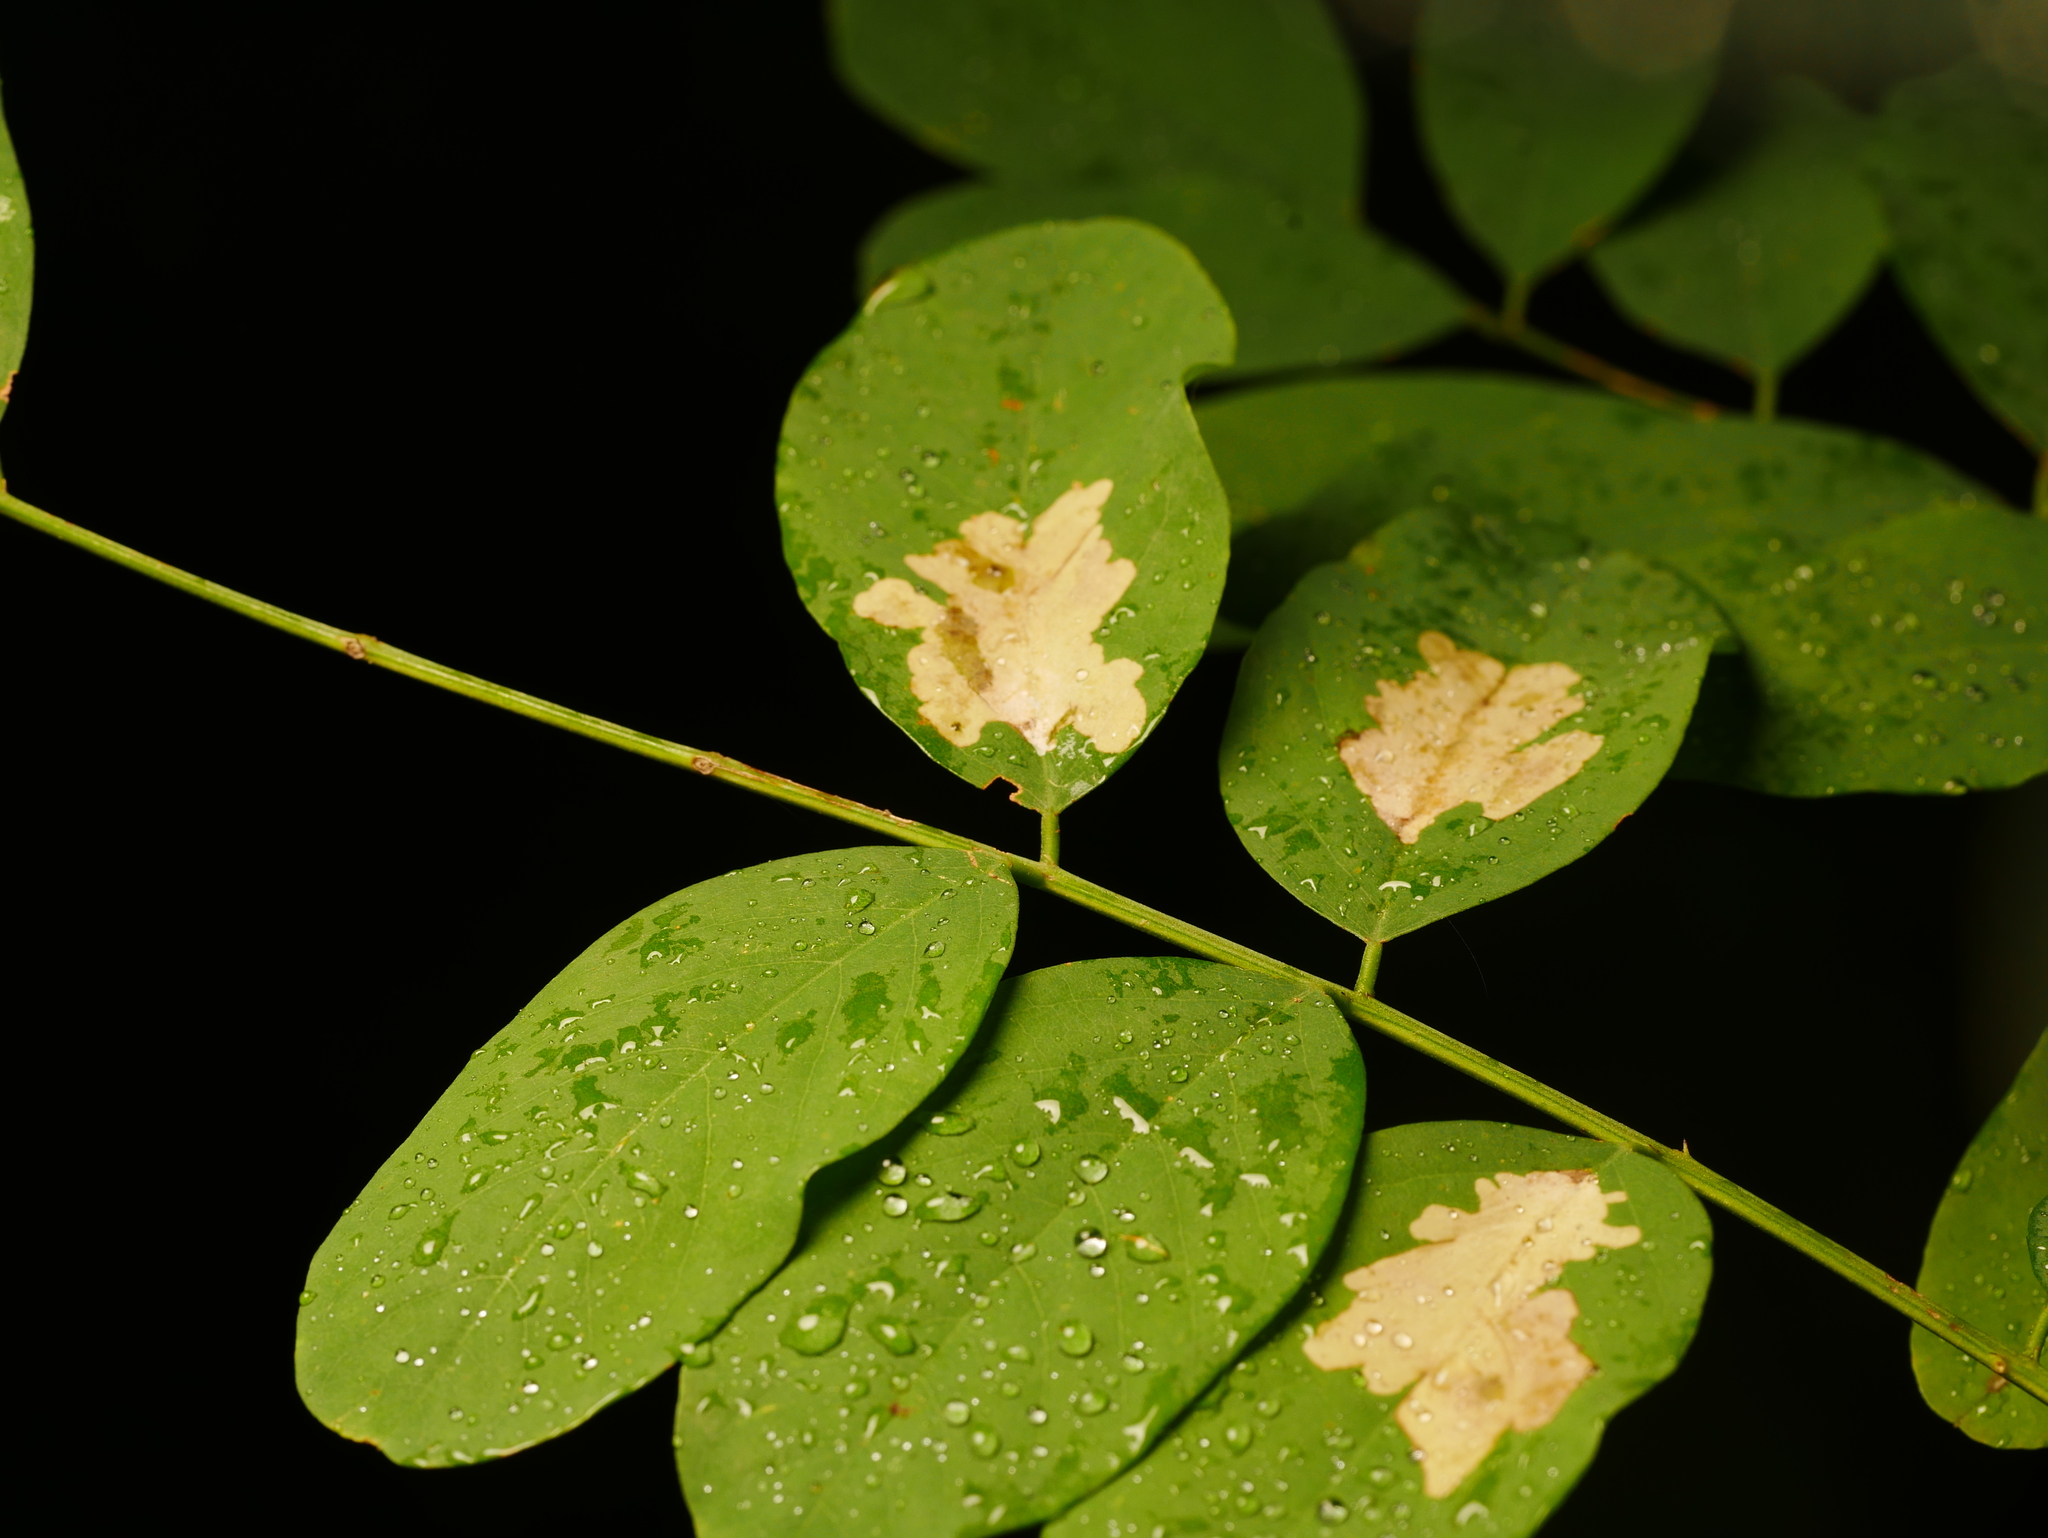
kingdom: Animalia
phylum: Arthropoda
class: Insecta
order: Lepidoptera
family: Gracillariidae
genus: Parectopa
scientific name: Parectopa robiniella
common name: Locust digitate leafminer
